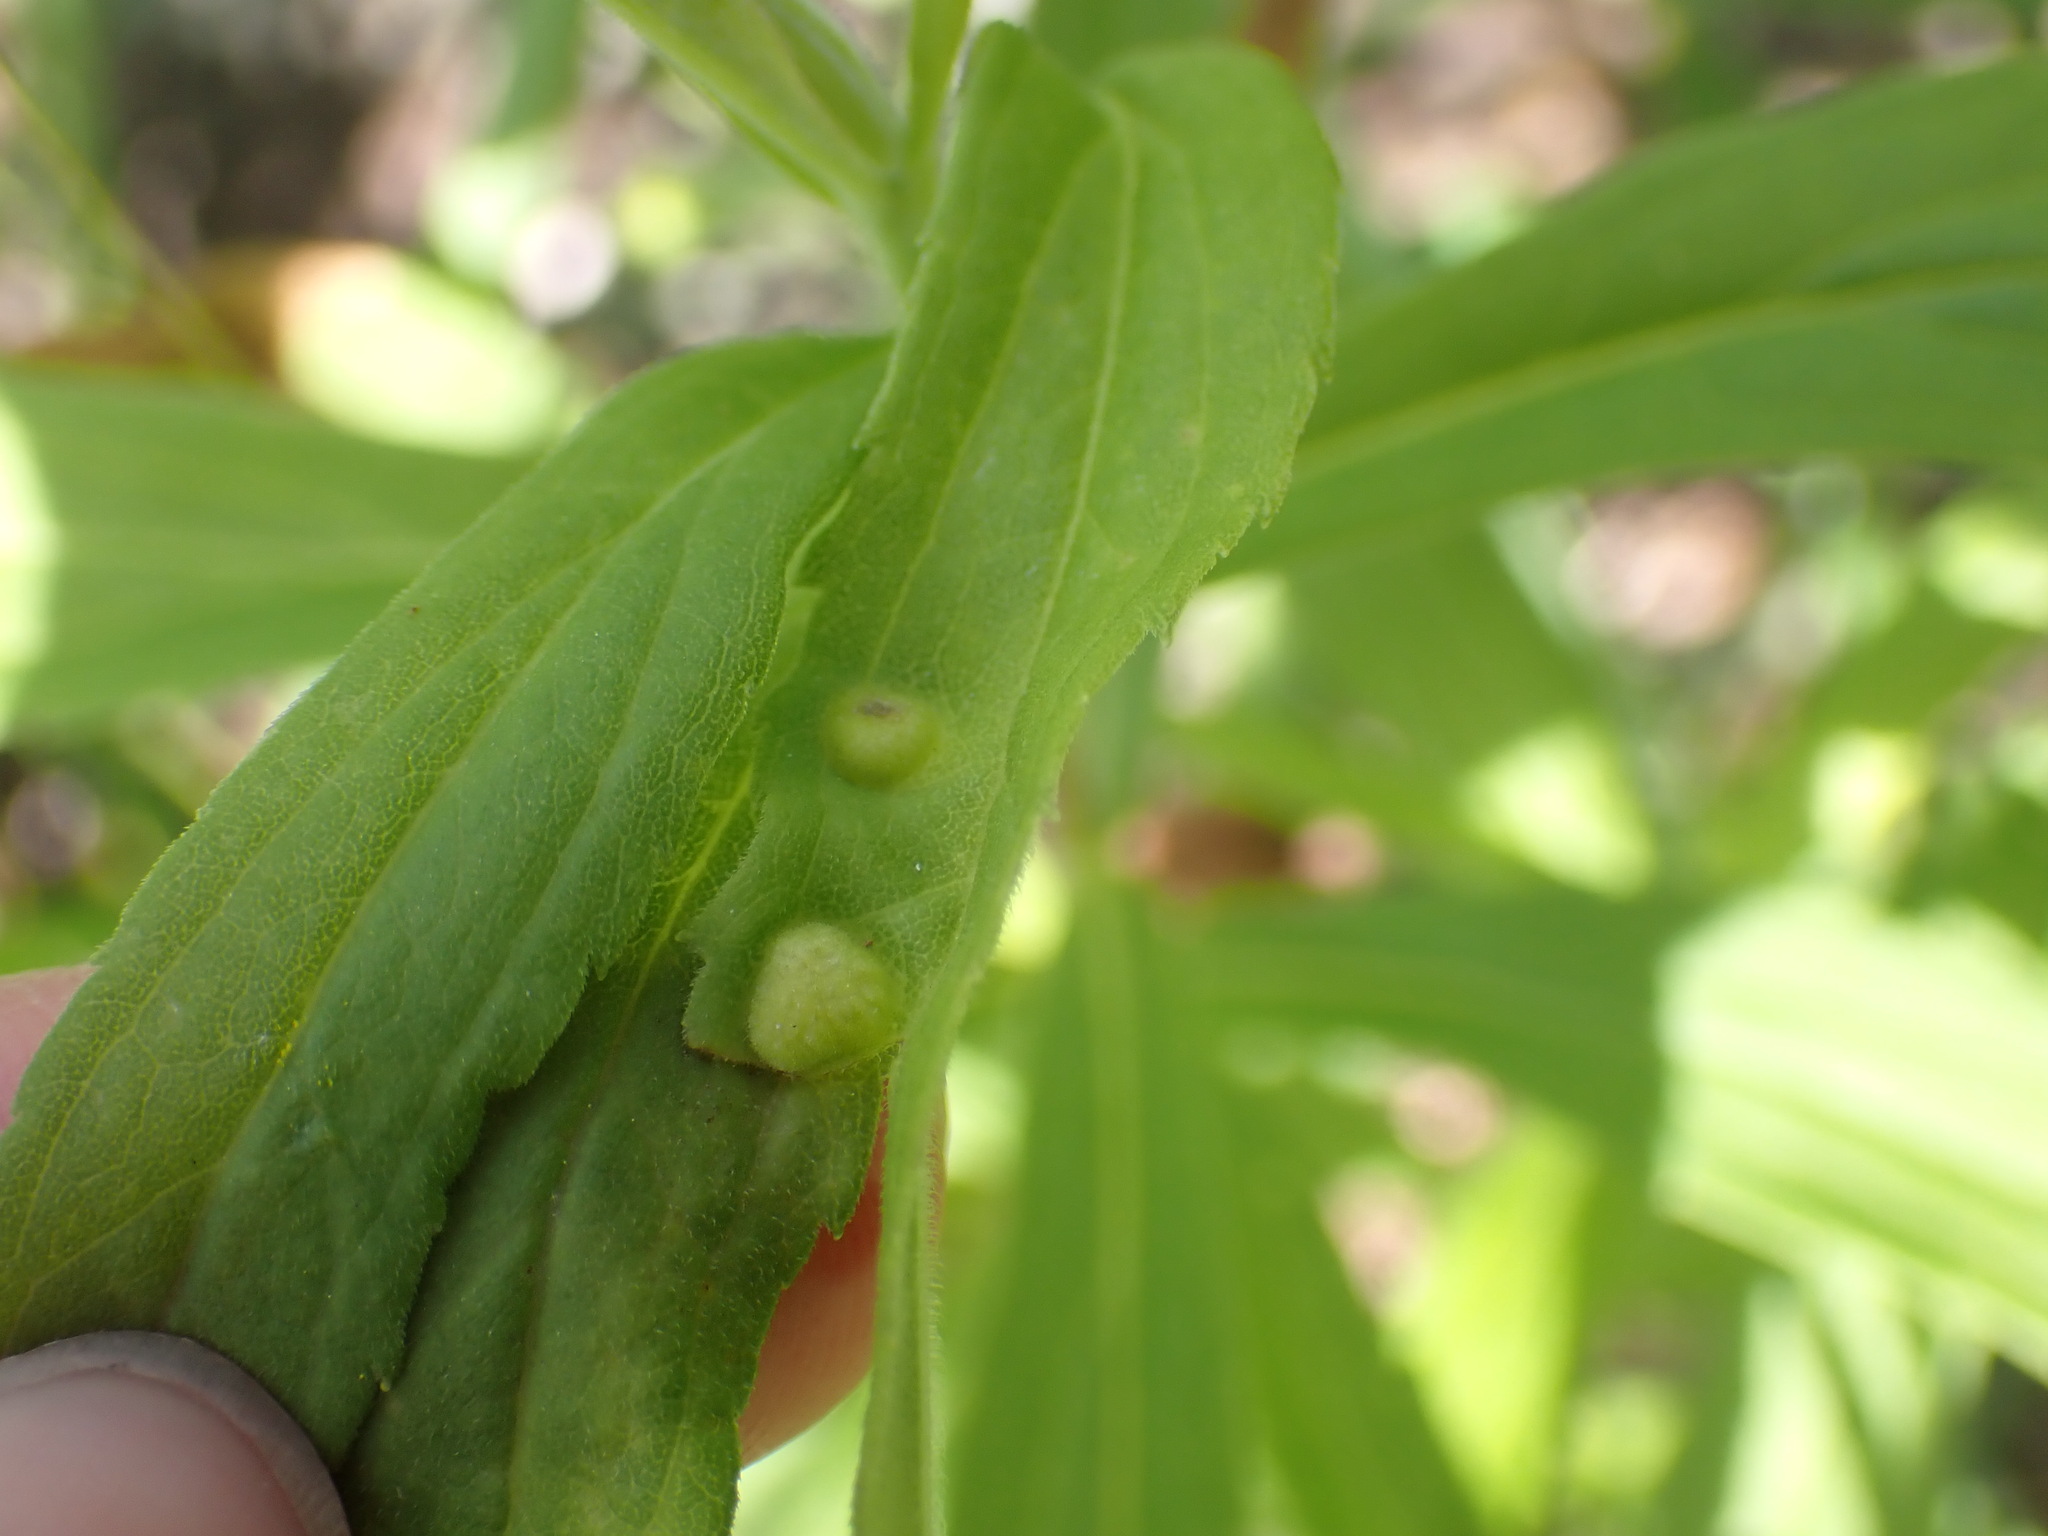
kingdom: Animalia
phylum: Arthropoda
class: Insecta
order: Diptera
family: Cecidomyiidae
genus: Asphondylia
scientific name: Asphondylia solidaginis
